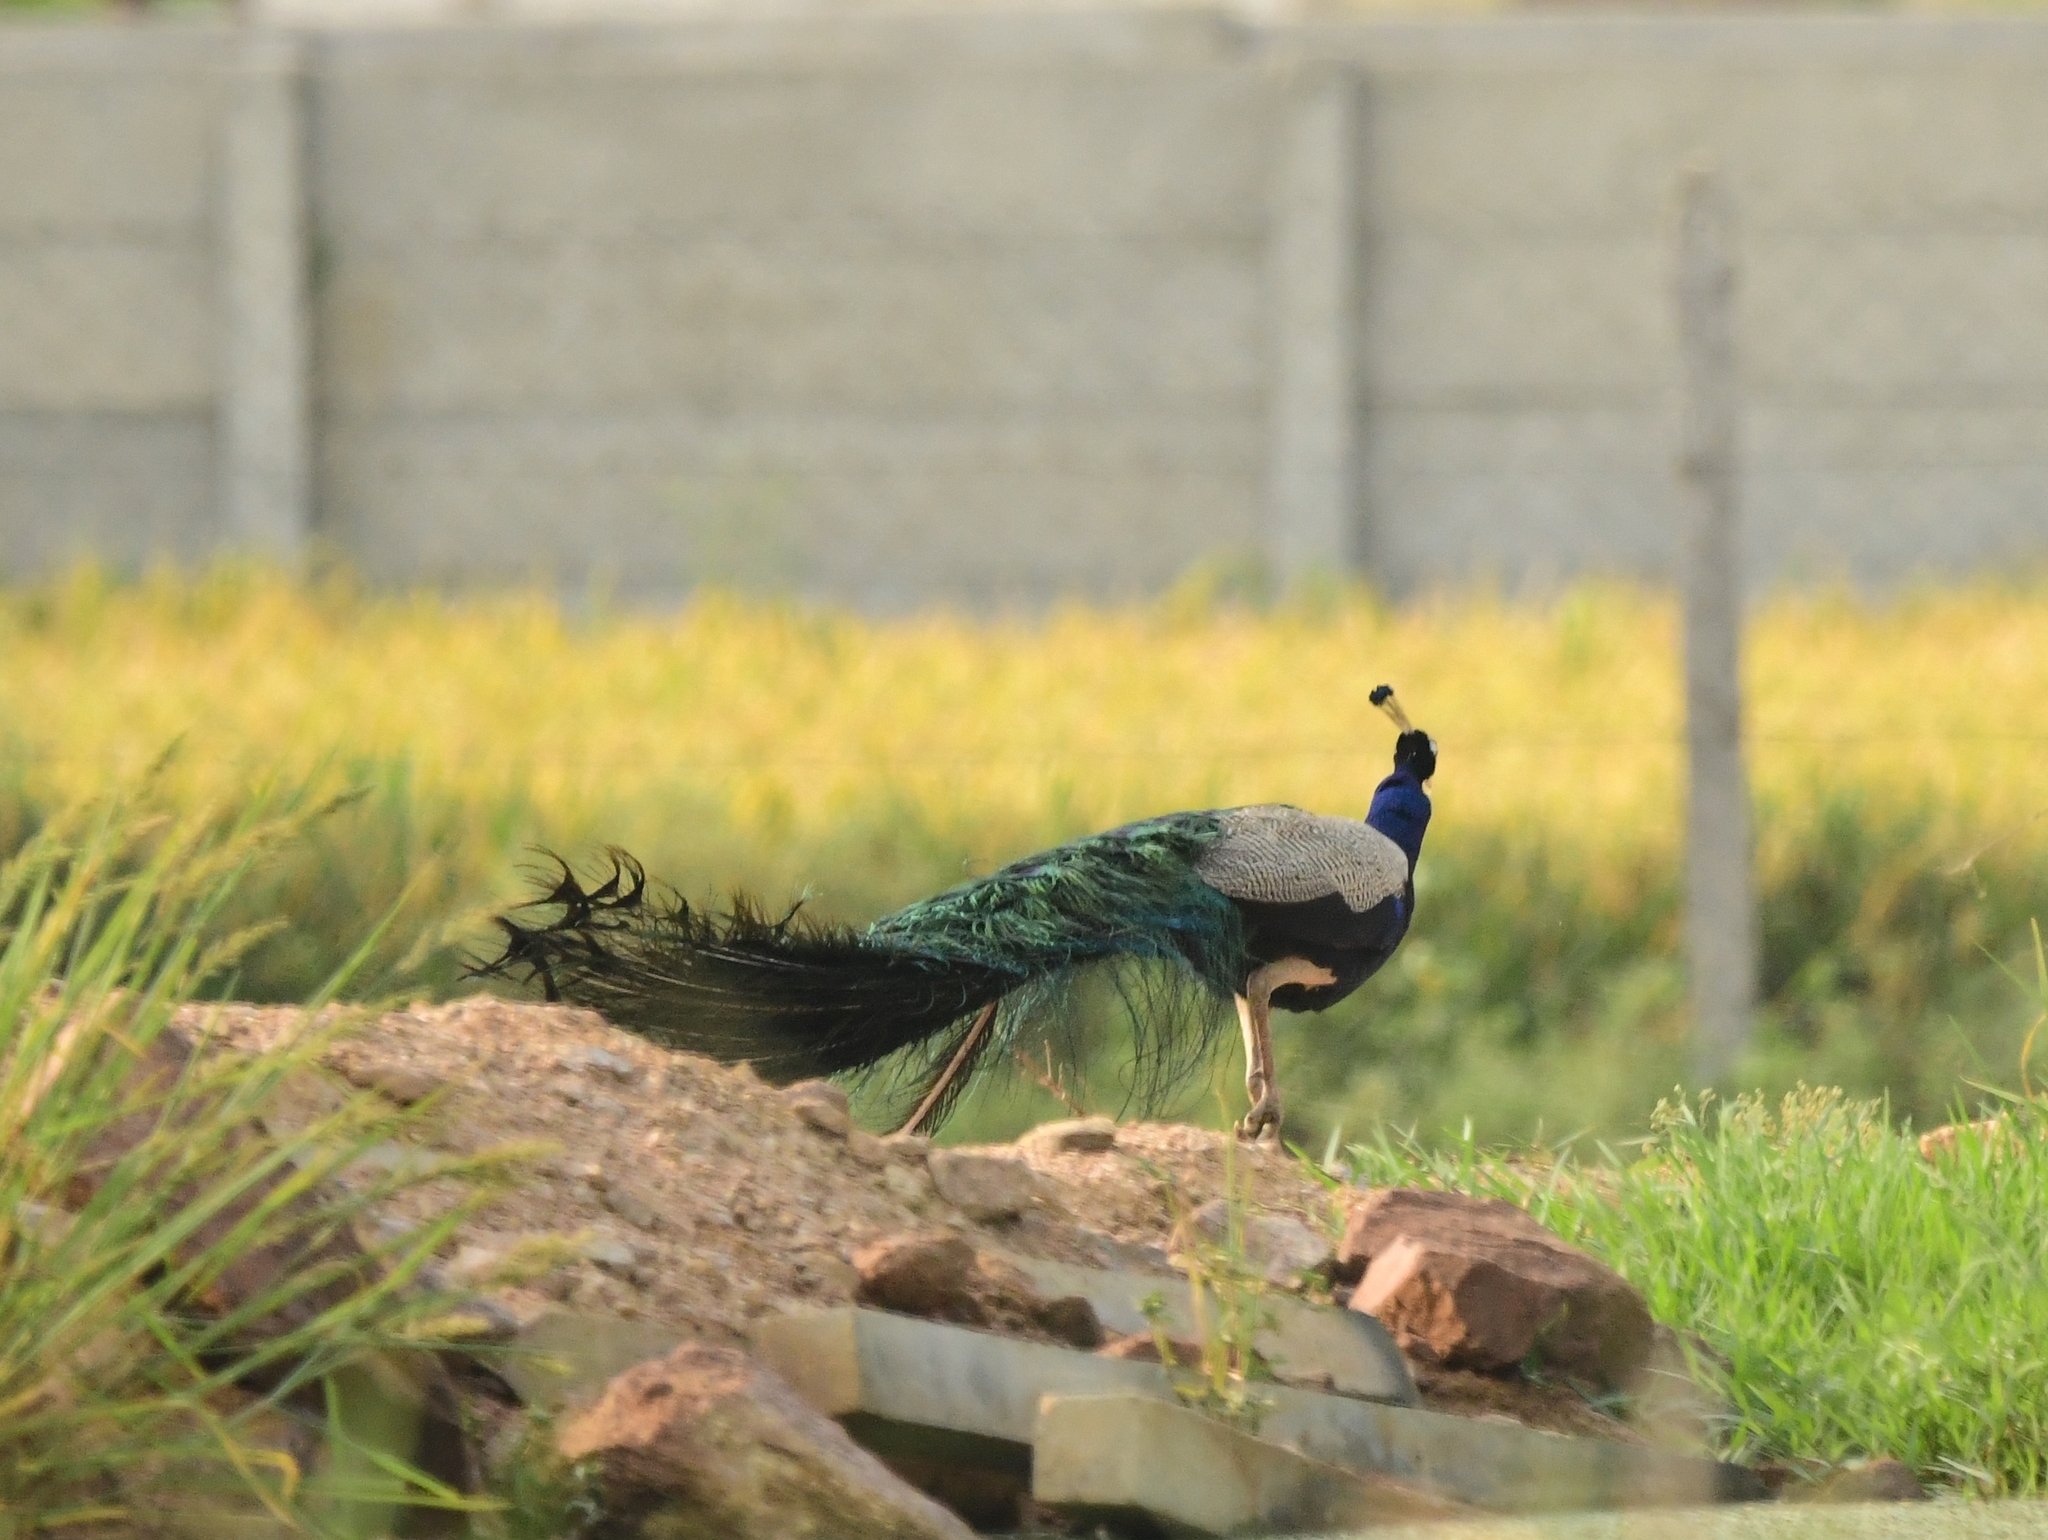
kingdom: Animalia
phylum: Chordata
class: Aves
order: Galliformes
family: Phasianidae
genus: Pavo
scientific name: Pavo cristatus
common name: Indian peafowl
